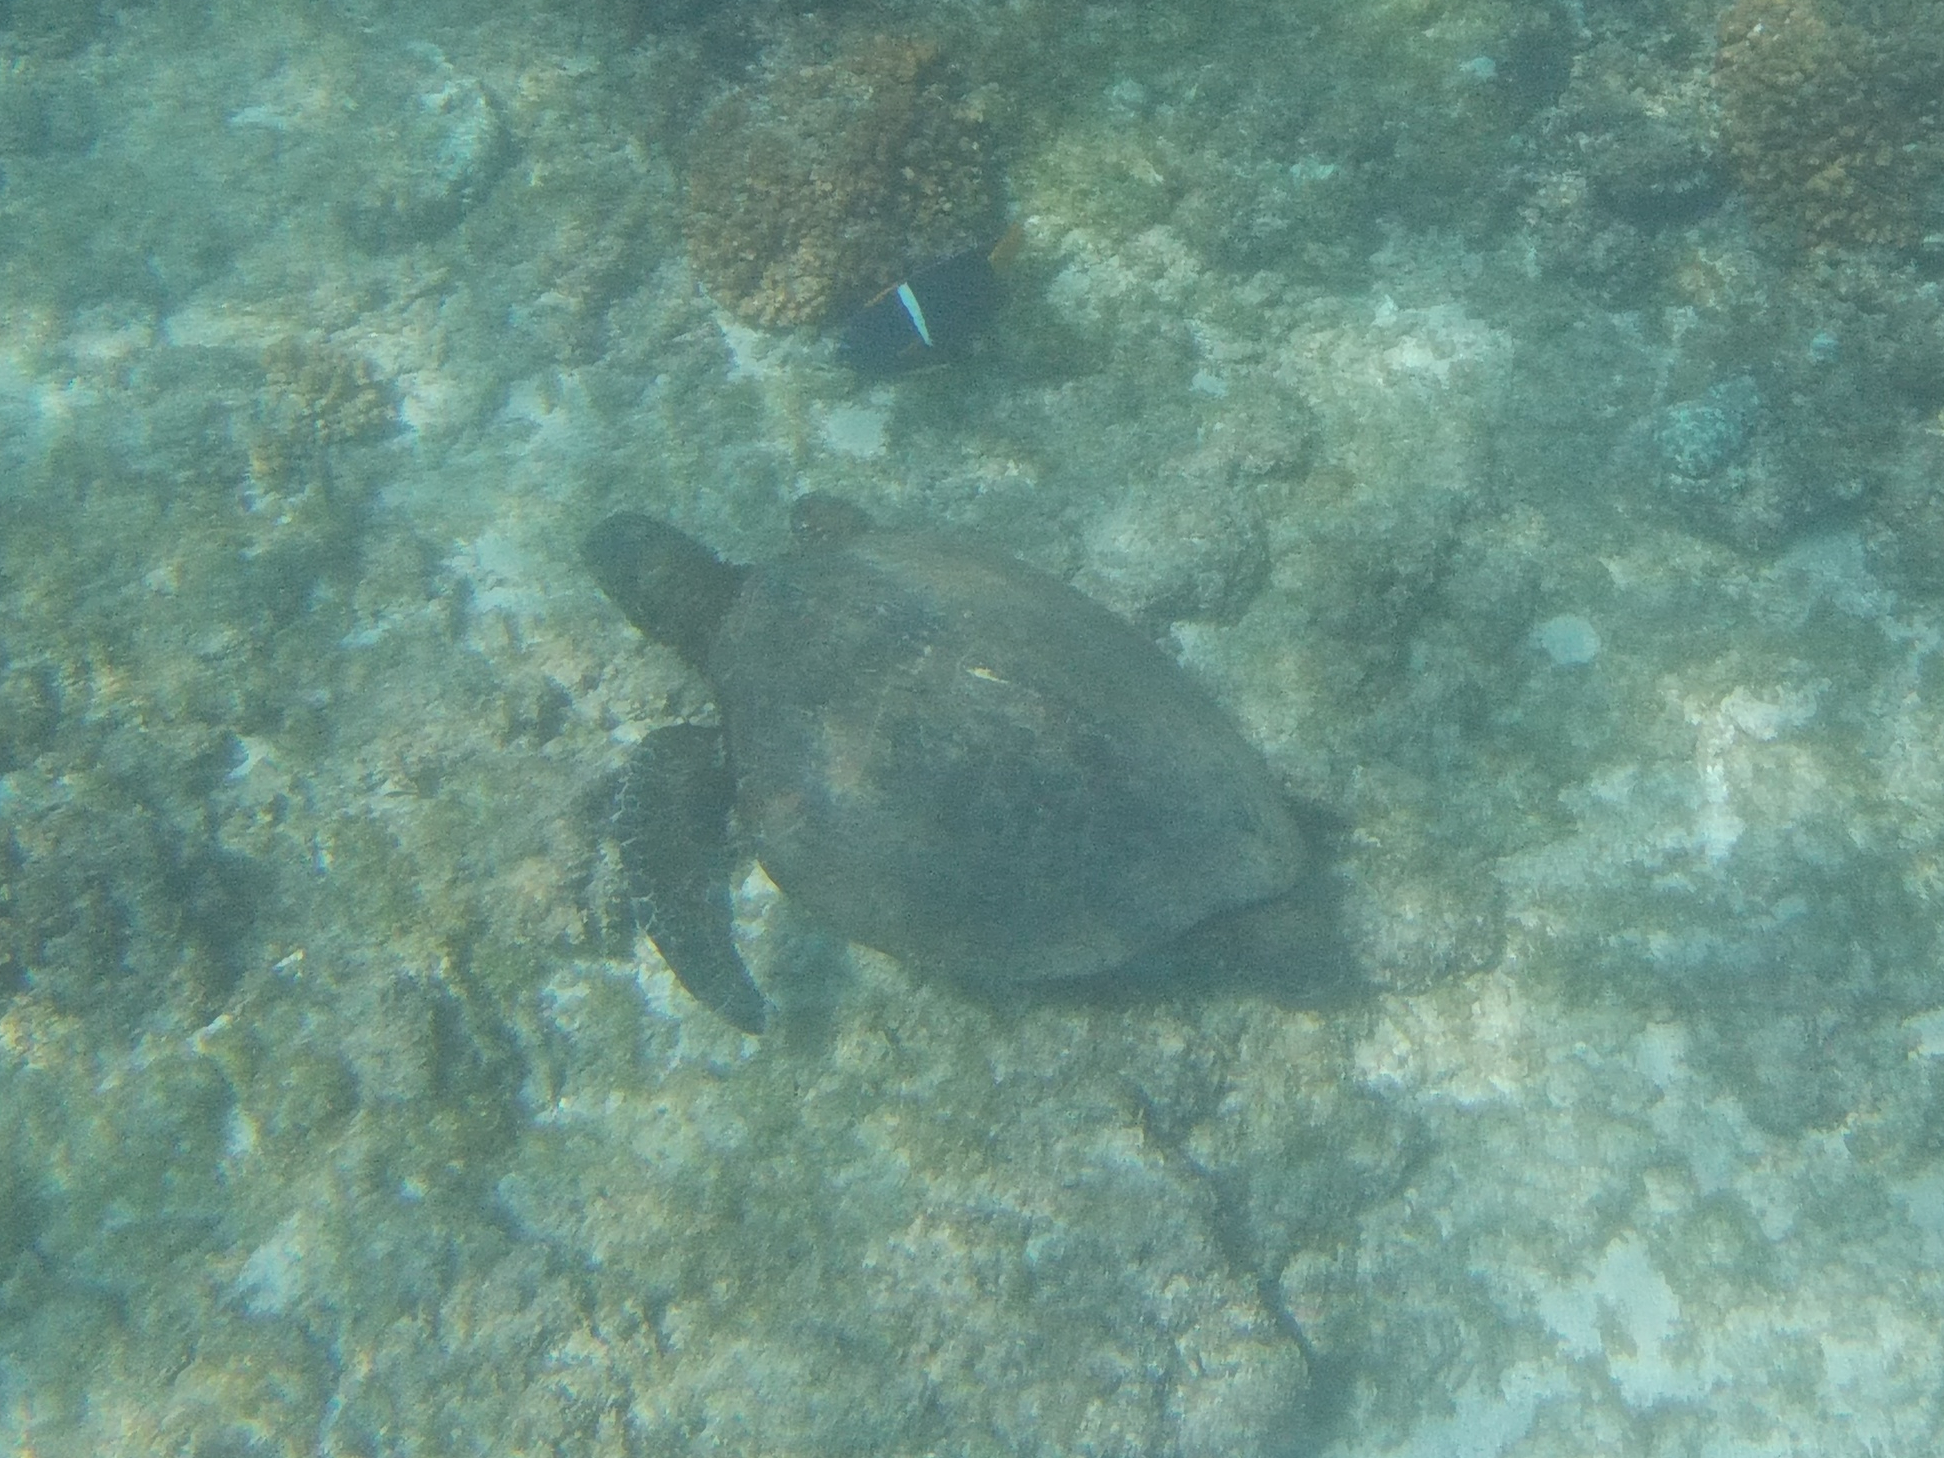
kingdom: Animalia
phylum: Chordata
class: Testudines
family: Cheloniidae
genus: Chelonia
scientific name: Chelonia mydas
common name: Green turtle
